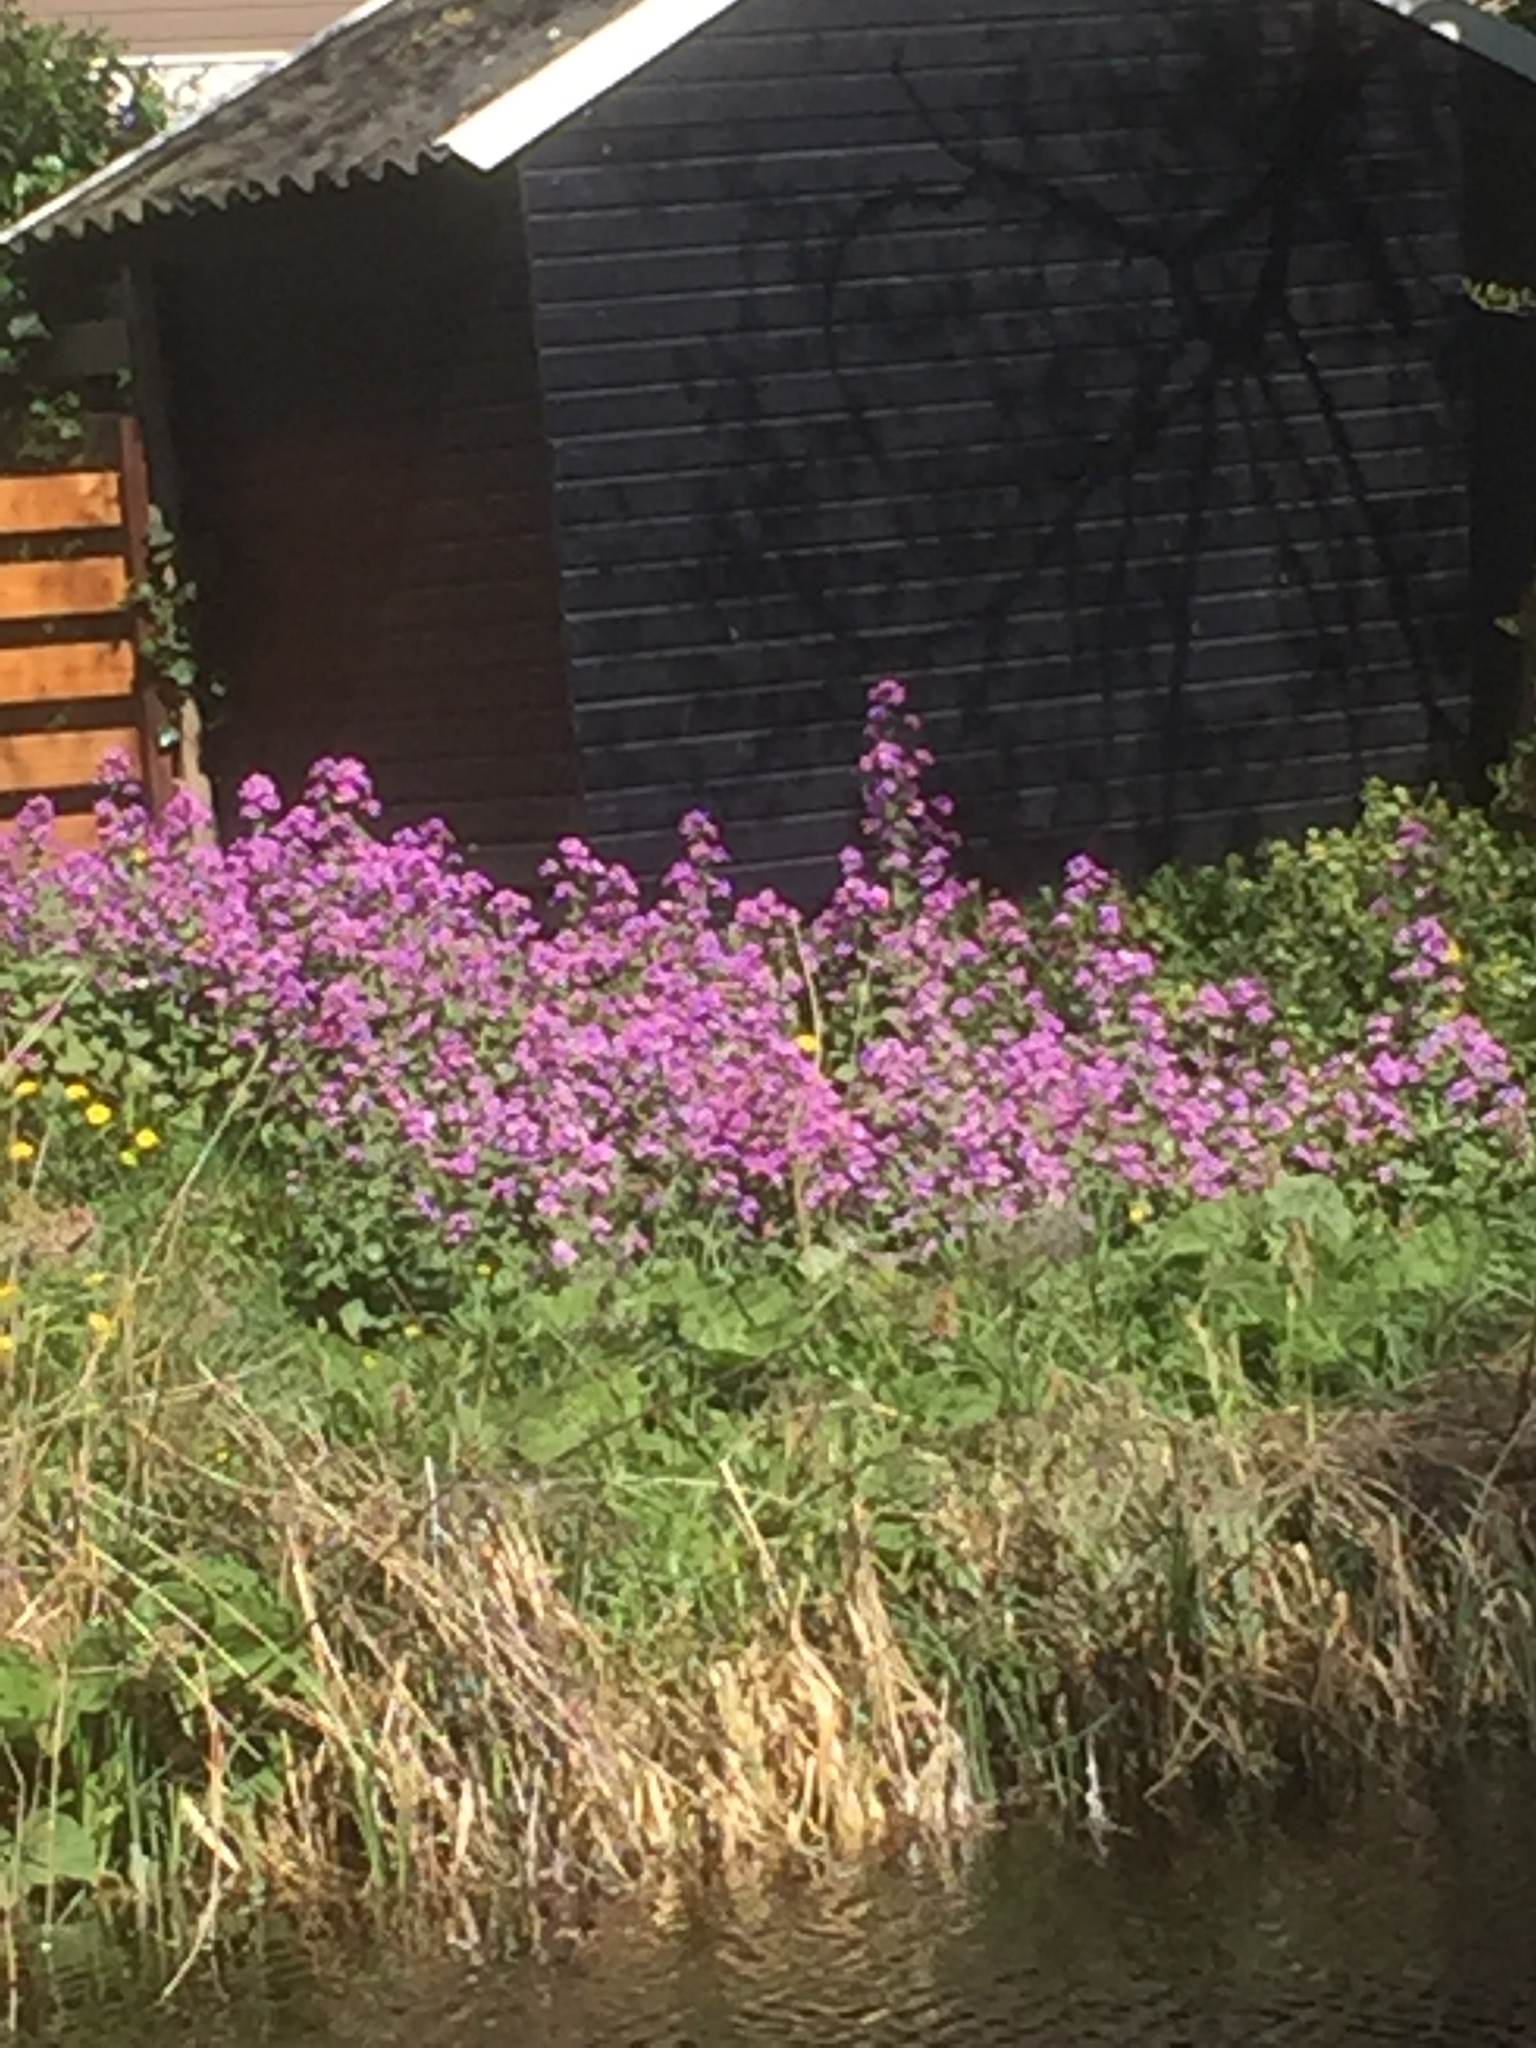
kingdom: Plantae
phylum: Tracheophyta
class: Magnoliopsida
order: Brassicales
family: Brassicaceae
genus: Lunaria
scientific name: Lunaria annua
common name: Honesty
